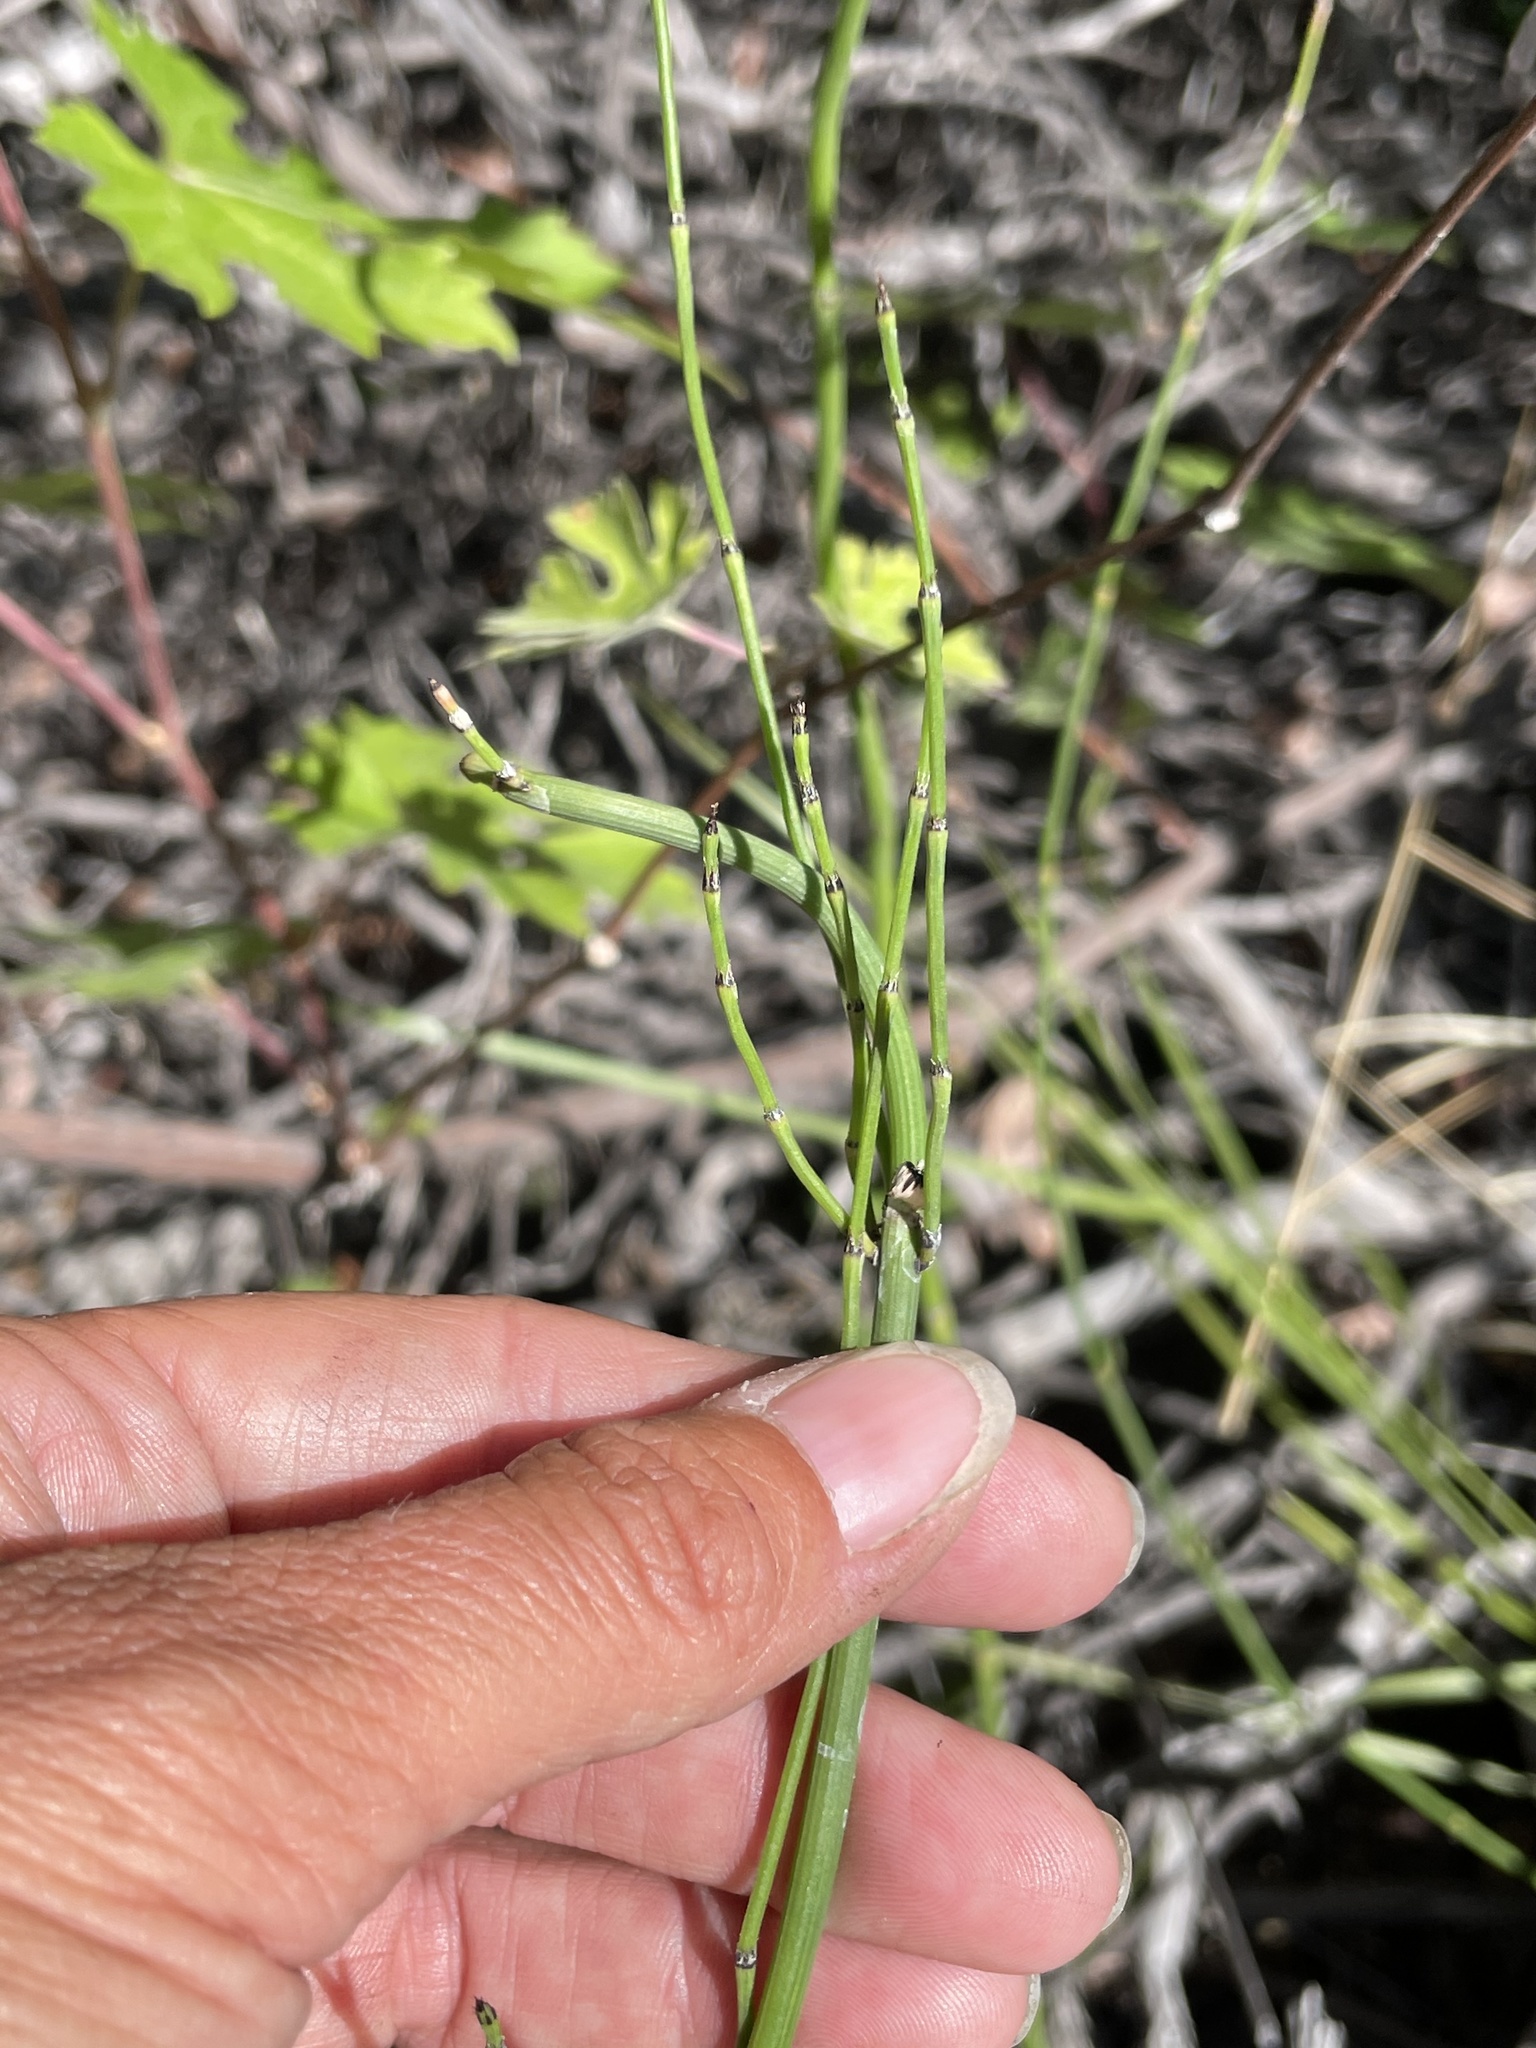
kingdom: Plantae
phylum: Tracheophyta
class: Polypodiopsida
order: Equisetales
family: Equisetaceae
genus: Equisetum
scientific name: Equisetum laevigatum
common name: Smooth scouring-rush
